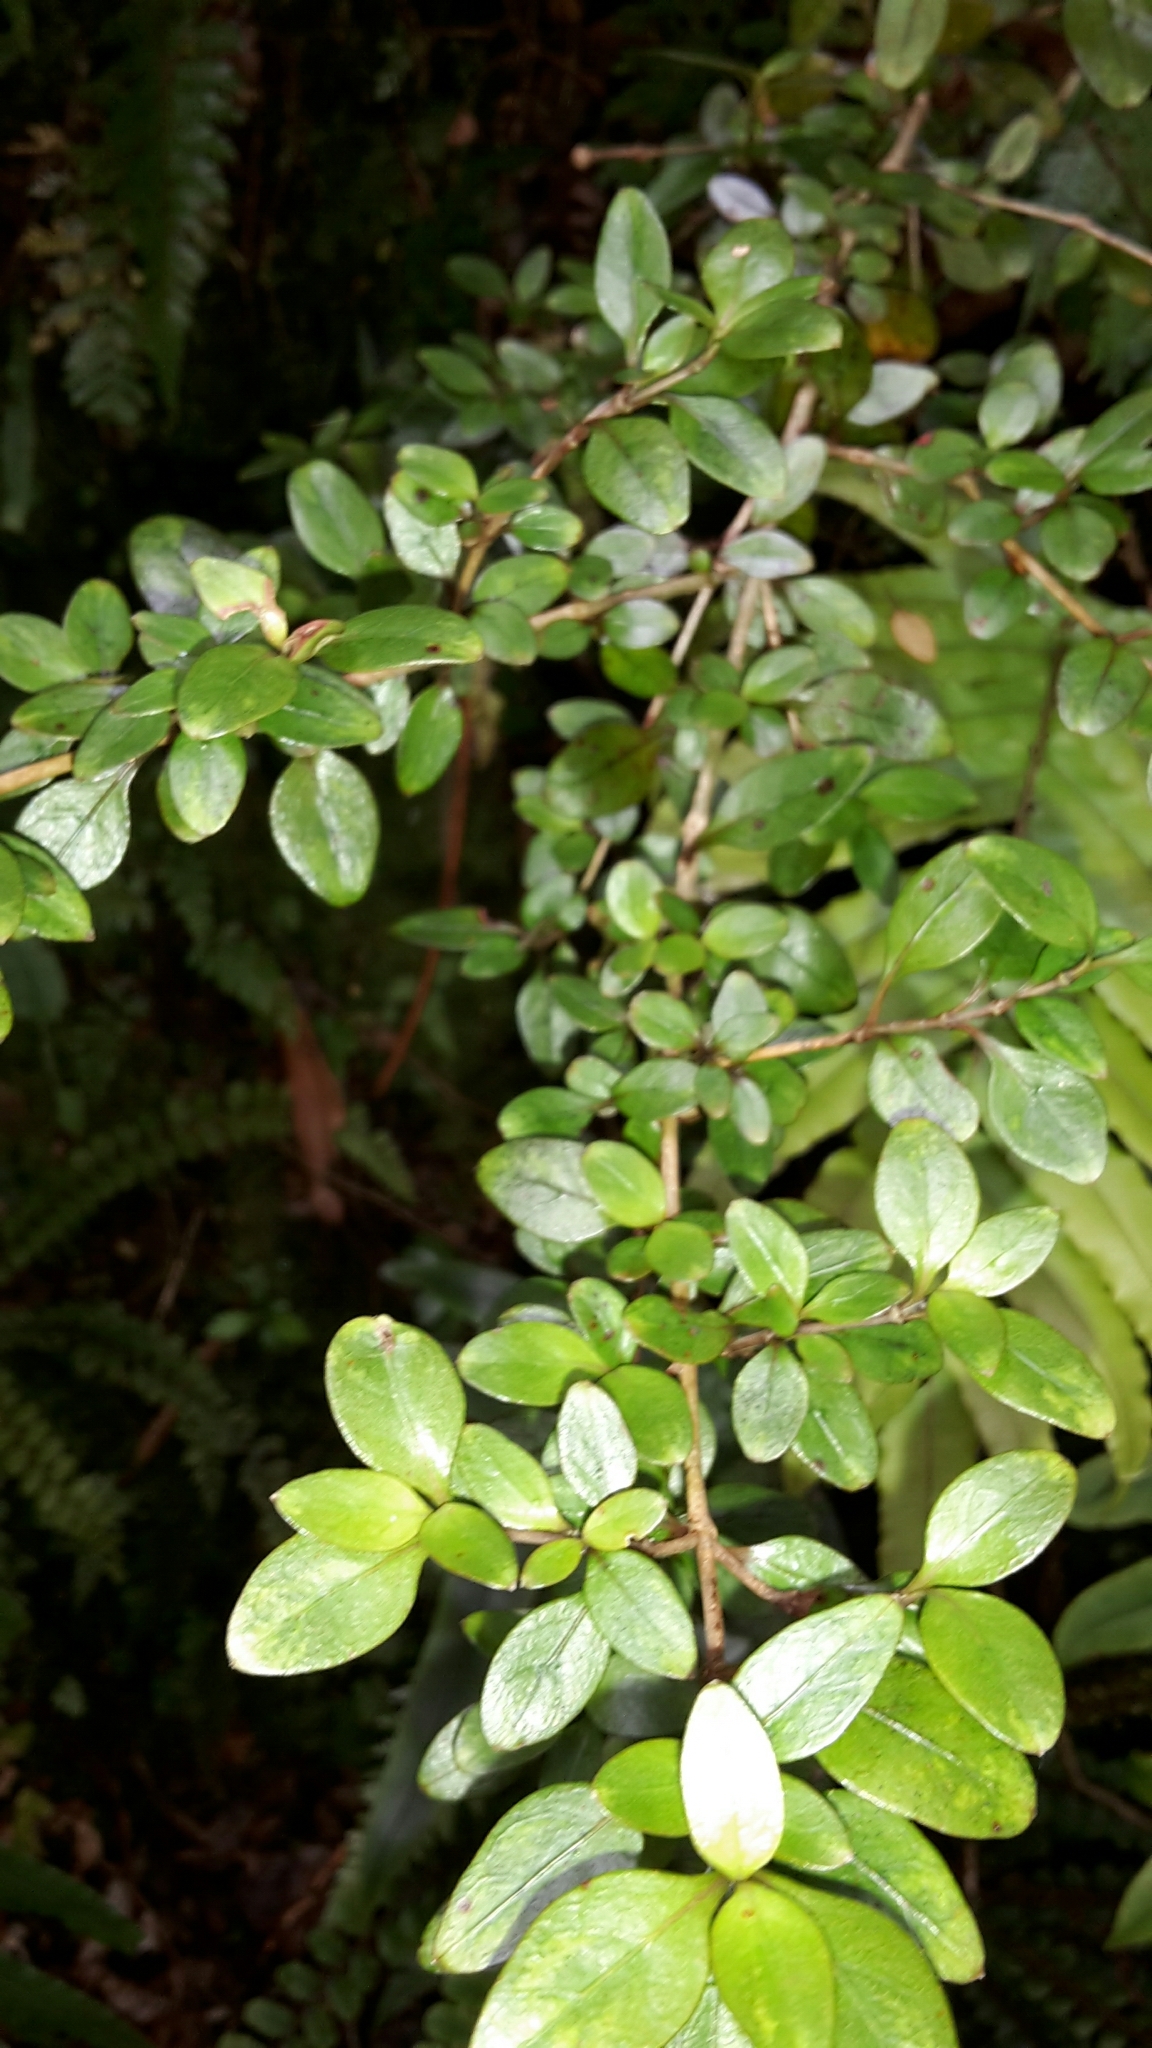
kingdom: Plantae
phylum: Tracheophyta
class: Magnoliopsida
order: Gentianales
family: Rubiaceae
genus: Coprosma
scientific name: Coprosma colensoi
